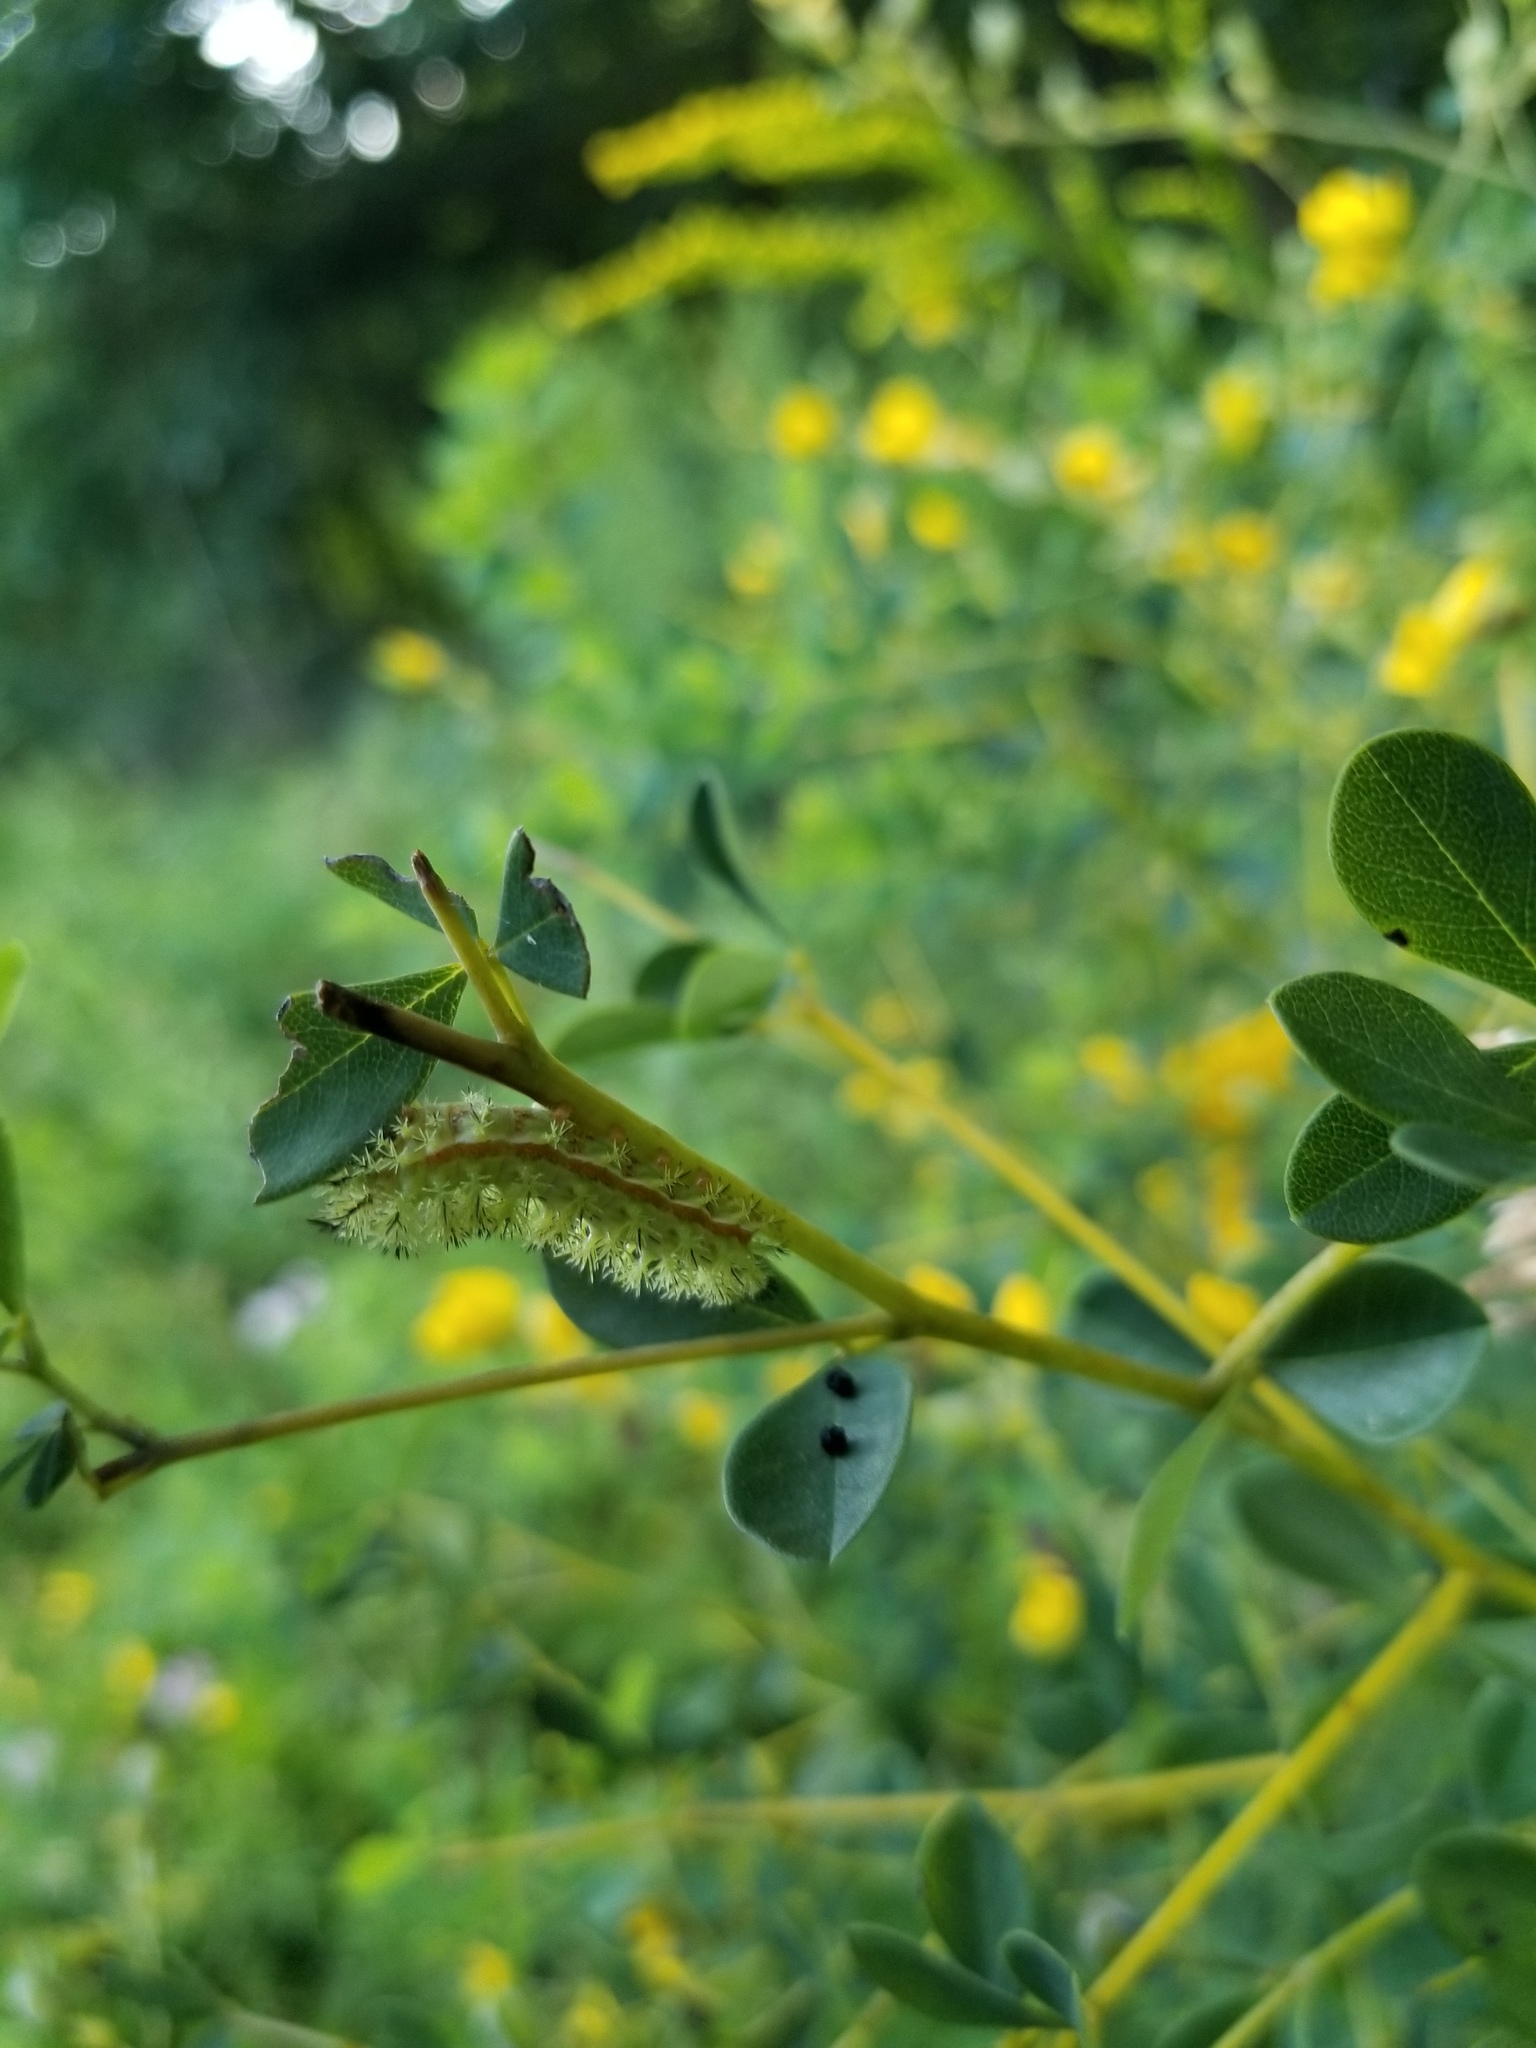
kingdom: Animalia
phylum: Arthropoda
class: Insecta
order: Lepidoptera
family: Saturniidae
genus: Automeris
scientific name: Automeris io
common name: Io moth
